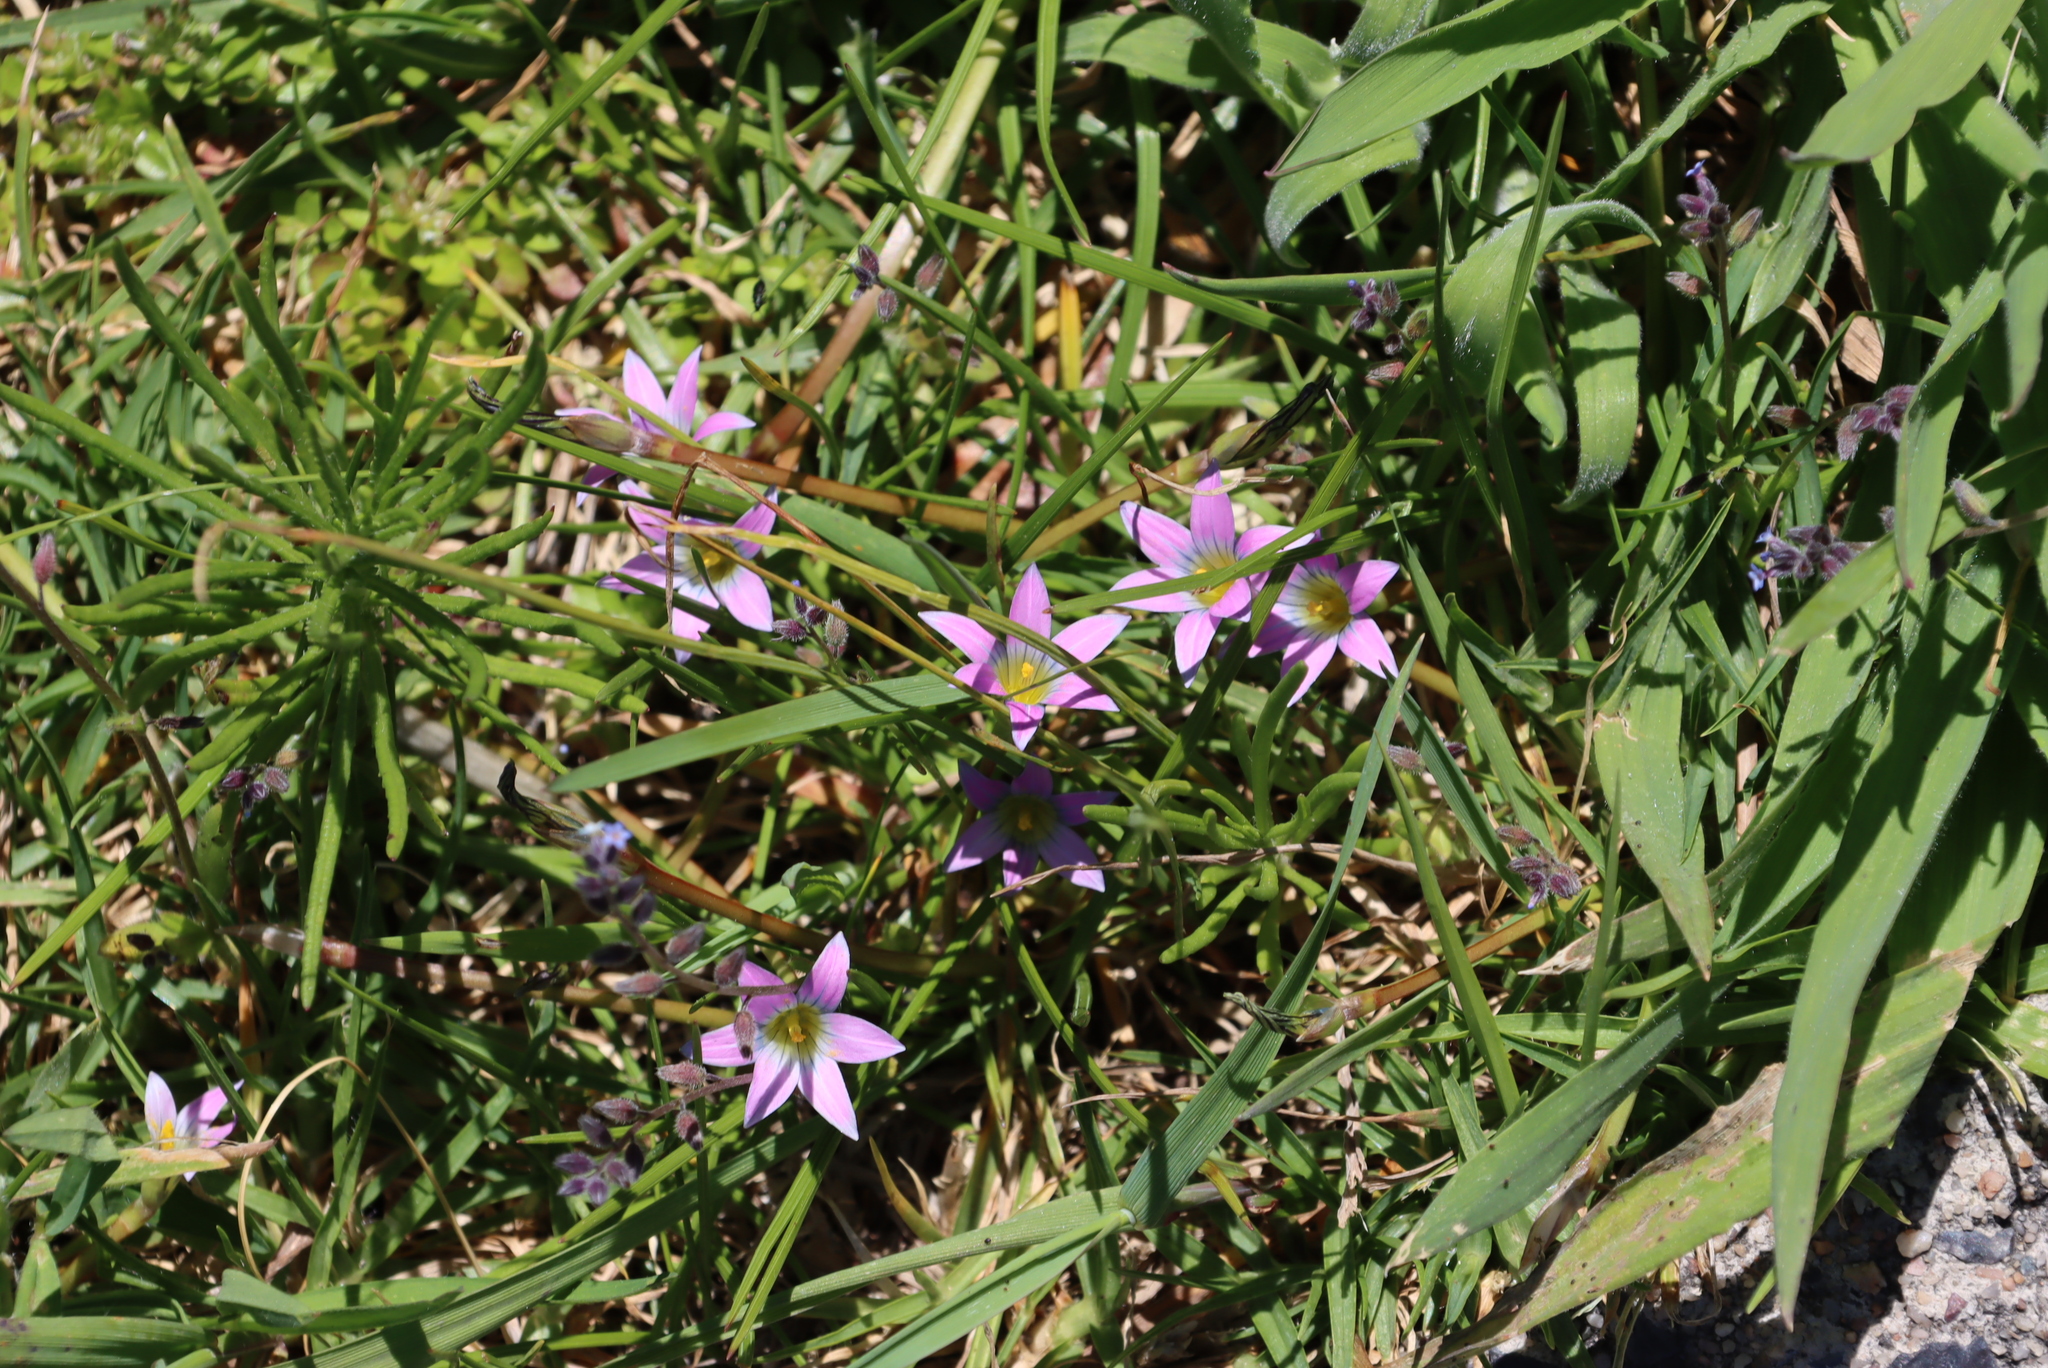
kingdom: Plantae
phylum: Tracheophyta
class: Liliopsida
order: Asparagales
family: Iridaceae
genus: Romulea
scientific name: Romulea rosea
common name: Oniongrass
